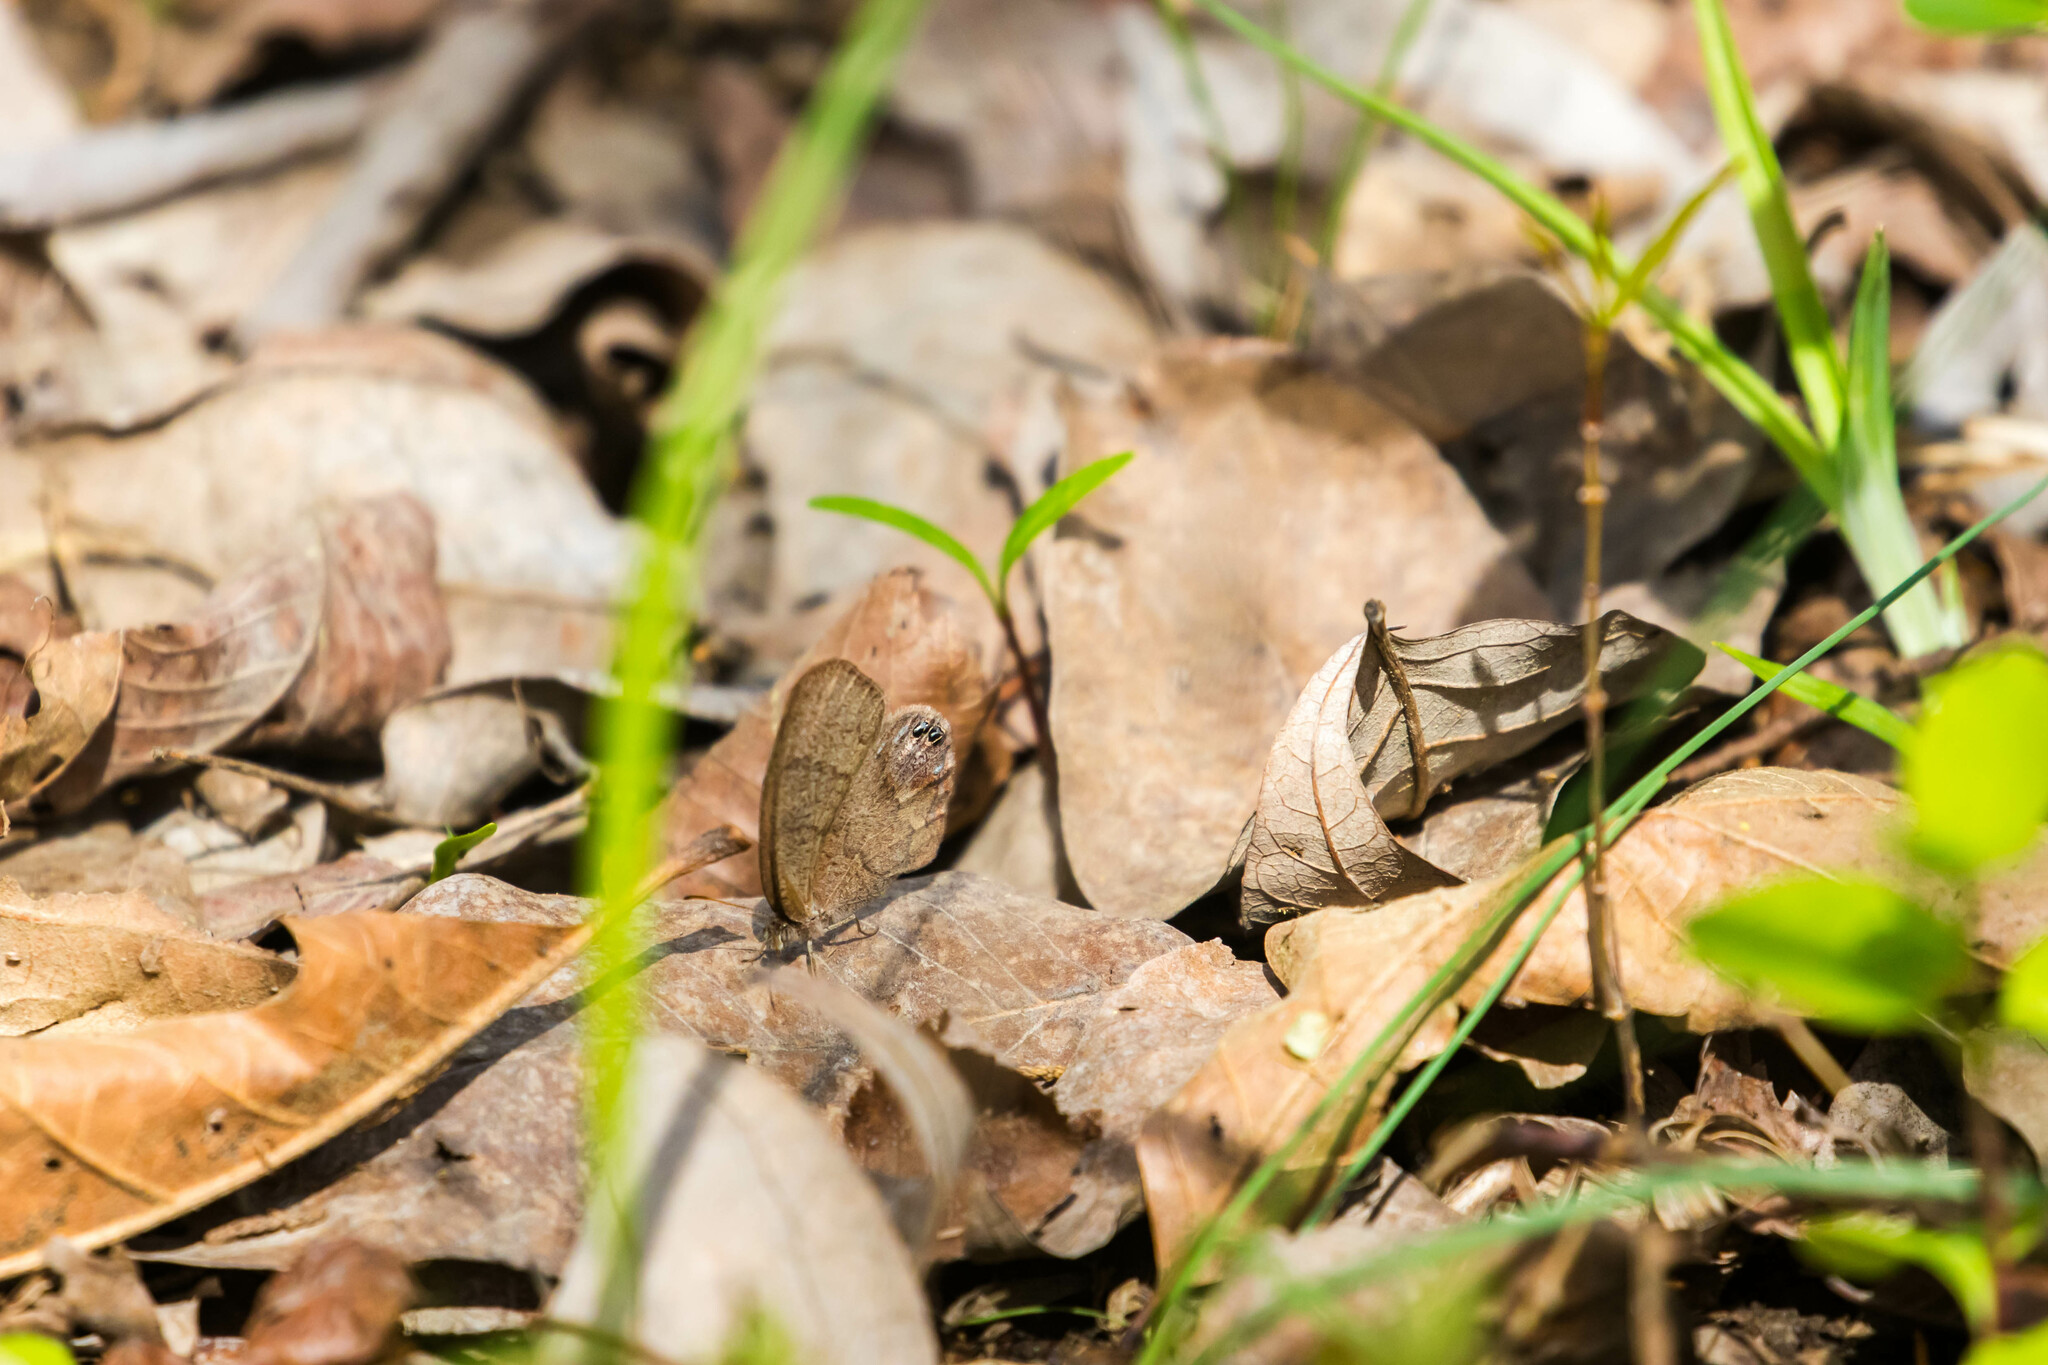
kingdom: Animalia
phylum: Arthropoda
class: Insecta
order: Lepidoptera
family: Nymphalidae
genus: Euptychia
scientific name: Euptychia cornelius
